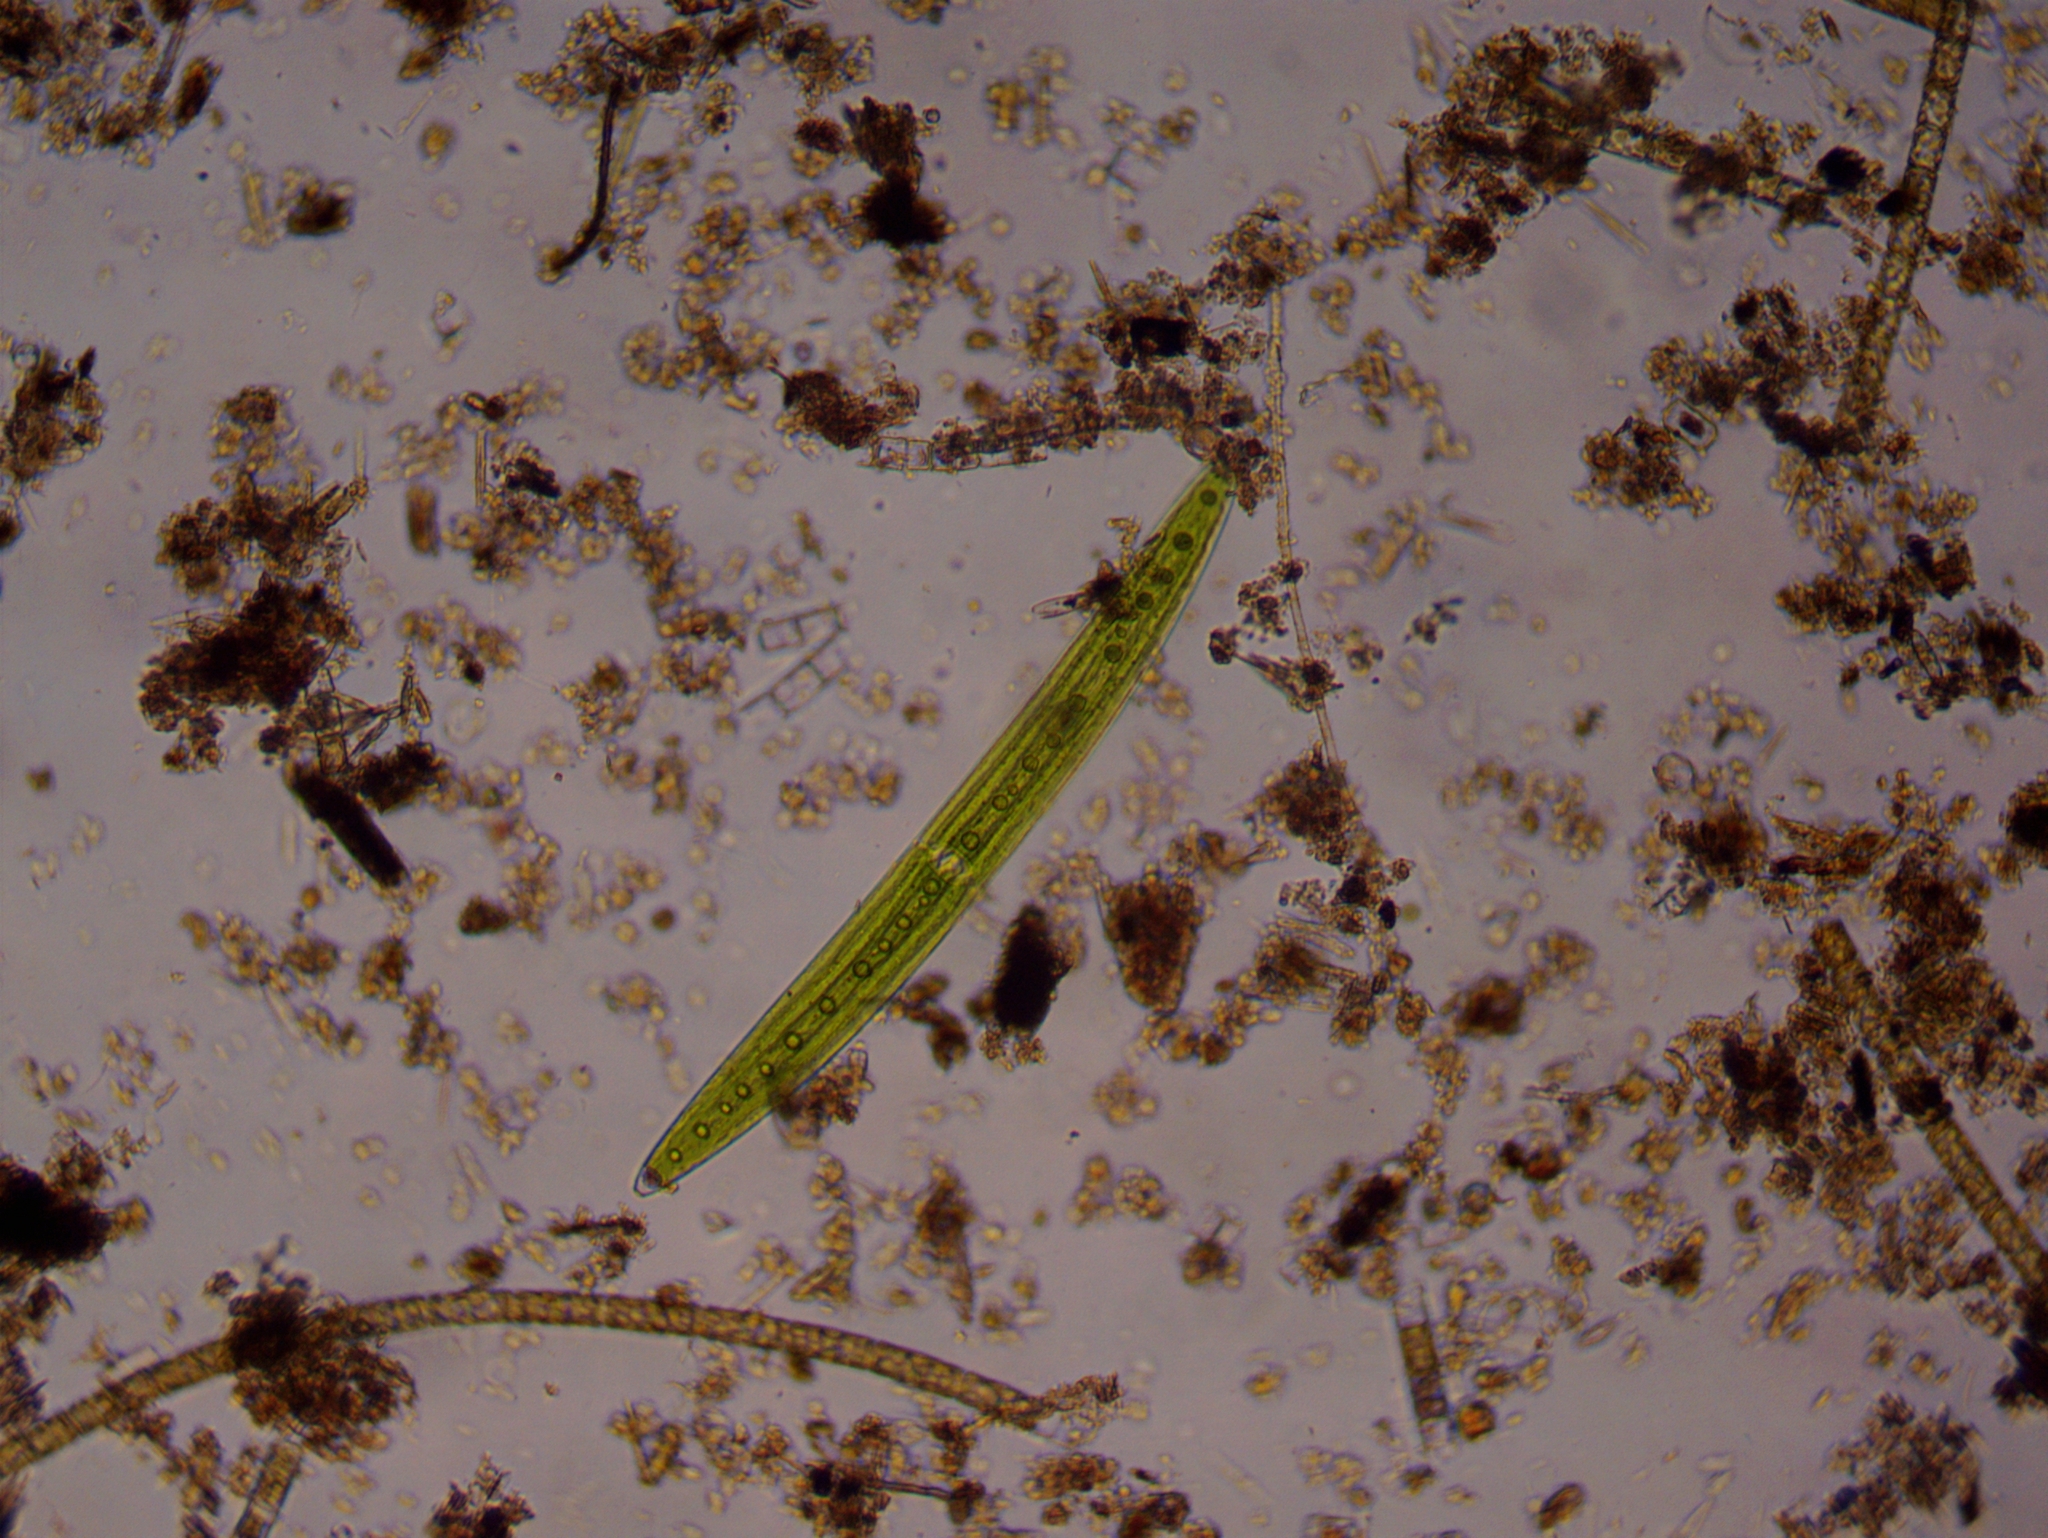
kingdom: Plantae
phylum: Charophyta
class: Zygnematophyceae
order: Zygnematales
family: Closteriaceae
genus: Closterium
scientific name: Closterium acerosum
